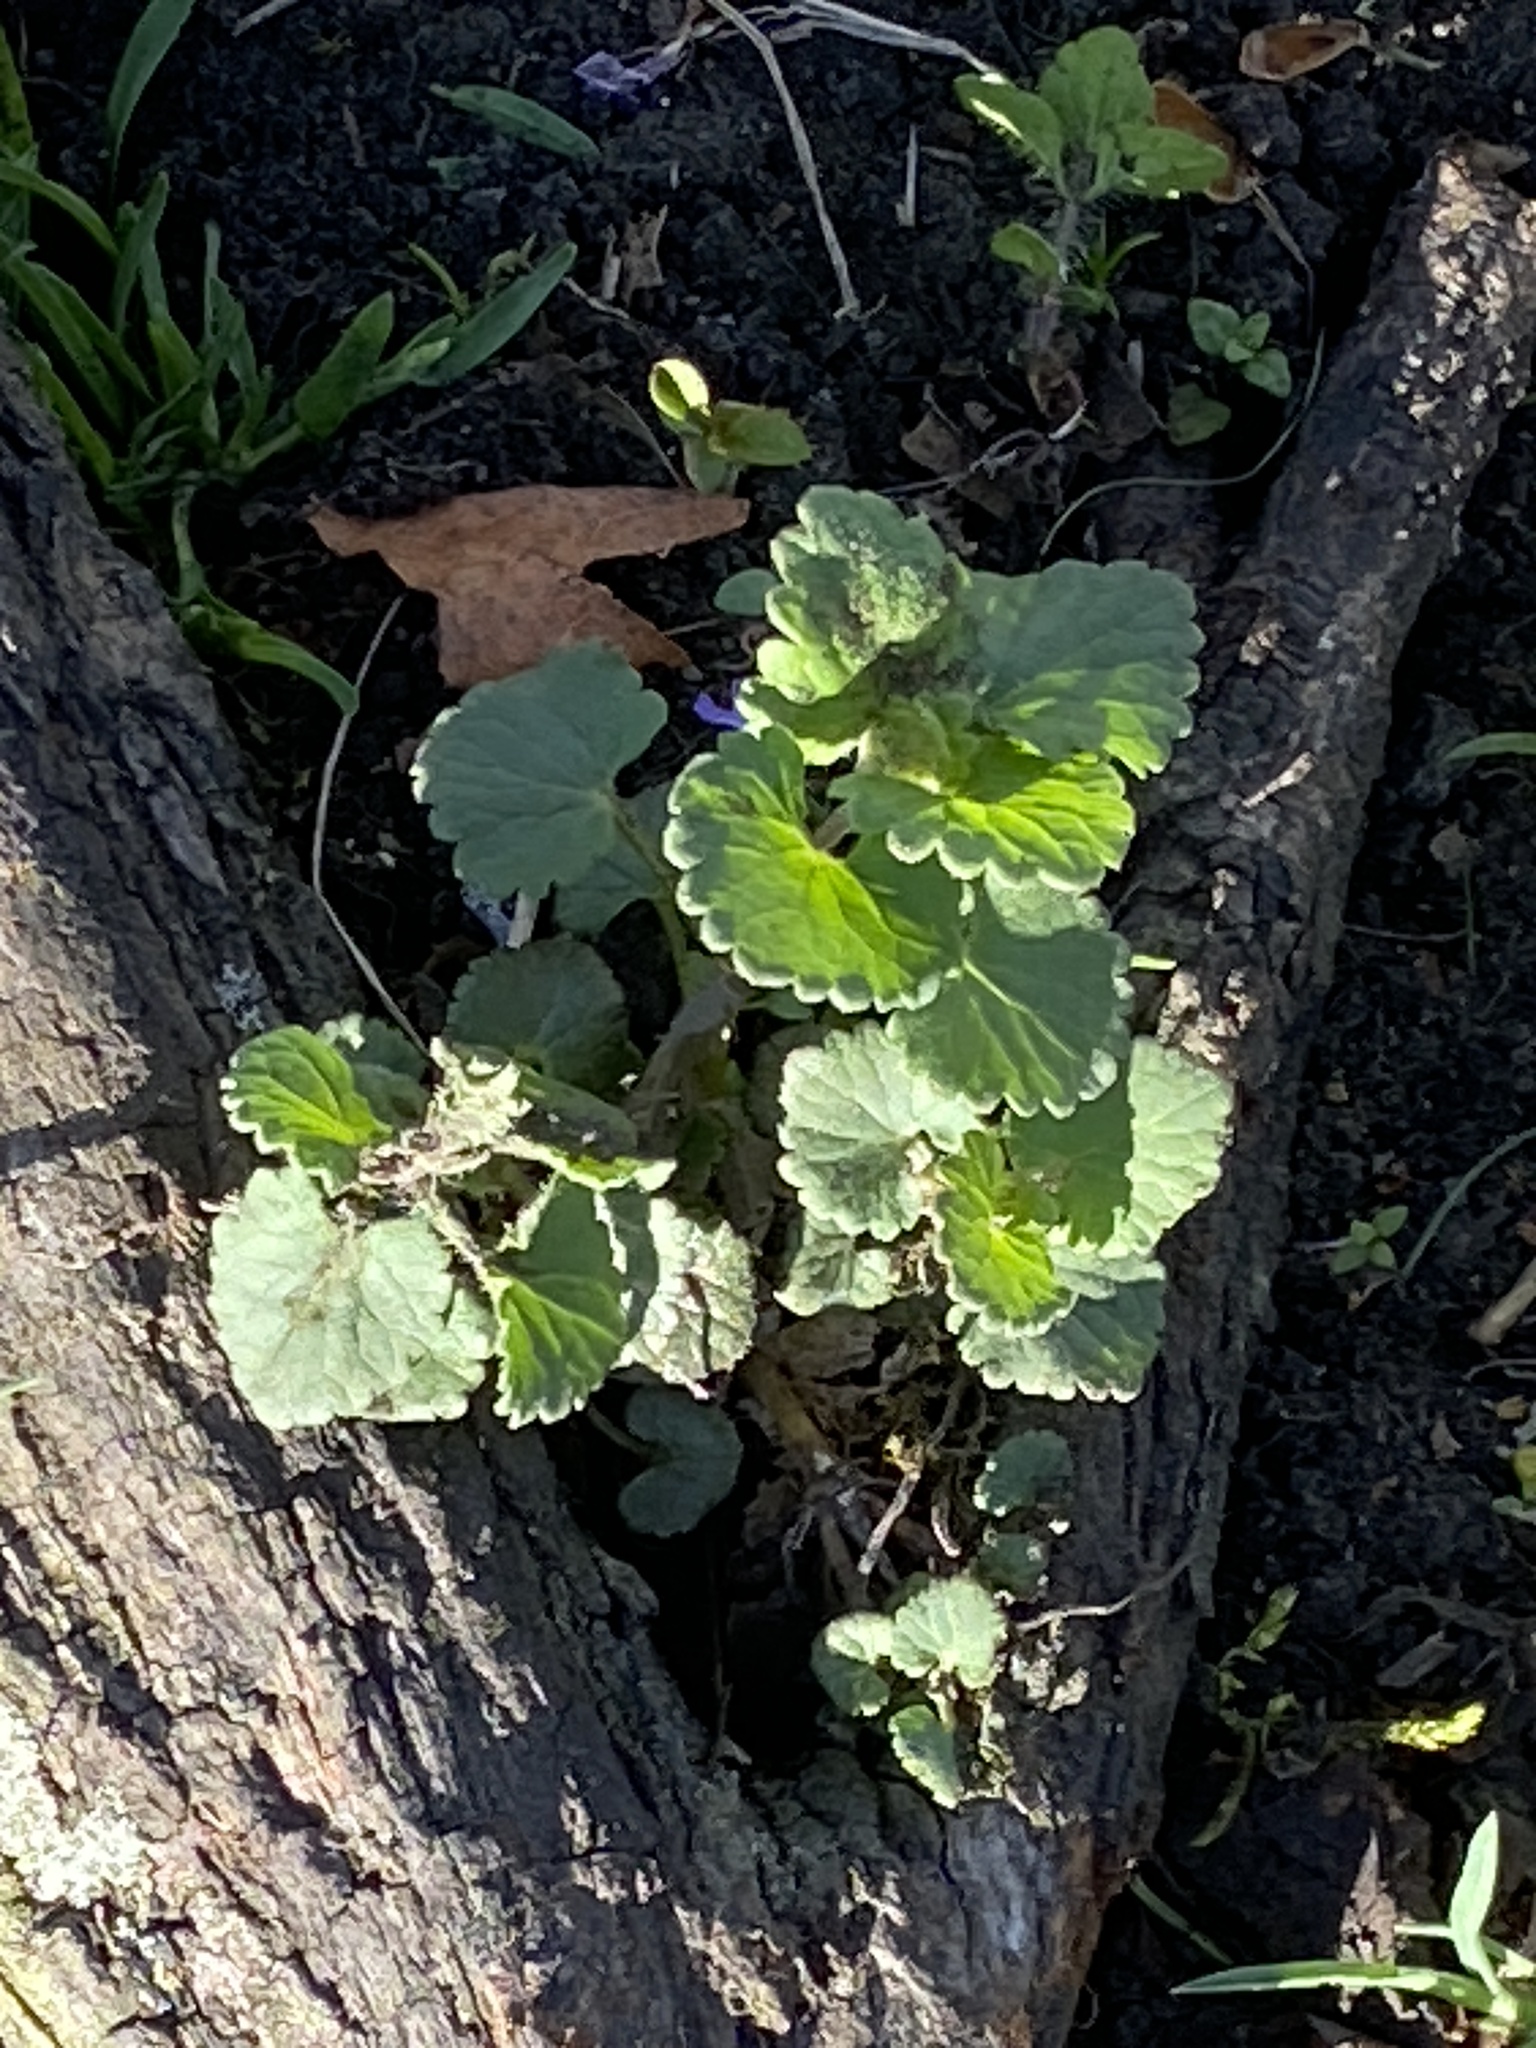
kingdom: Plantae
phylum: Tracheophyta
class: Magnoliopsida
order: Lamiales
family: Lamiaceae
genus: Glechoma
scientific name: Glechoma hederacea
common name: Ground ivy
